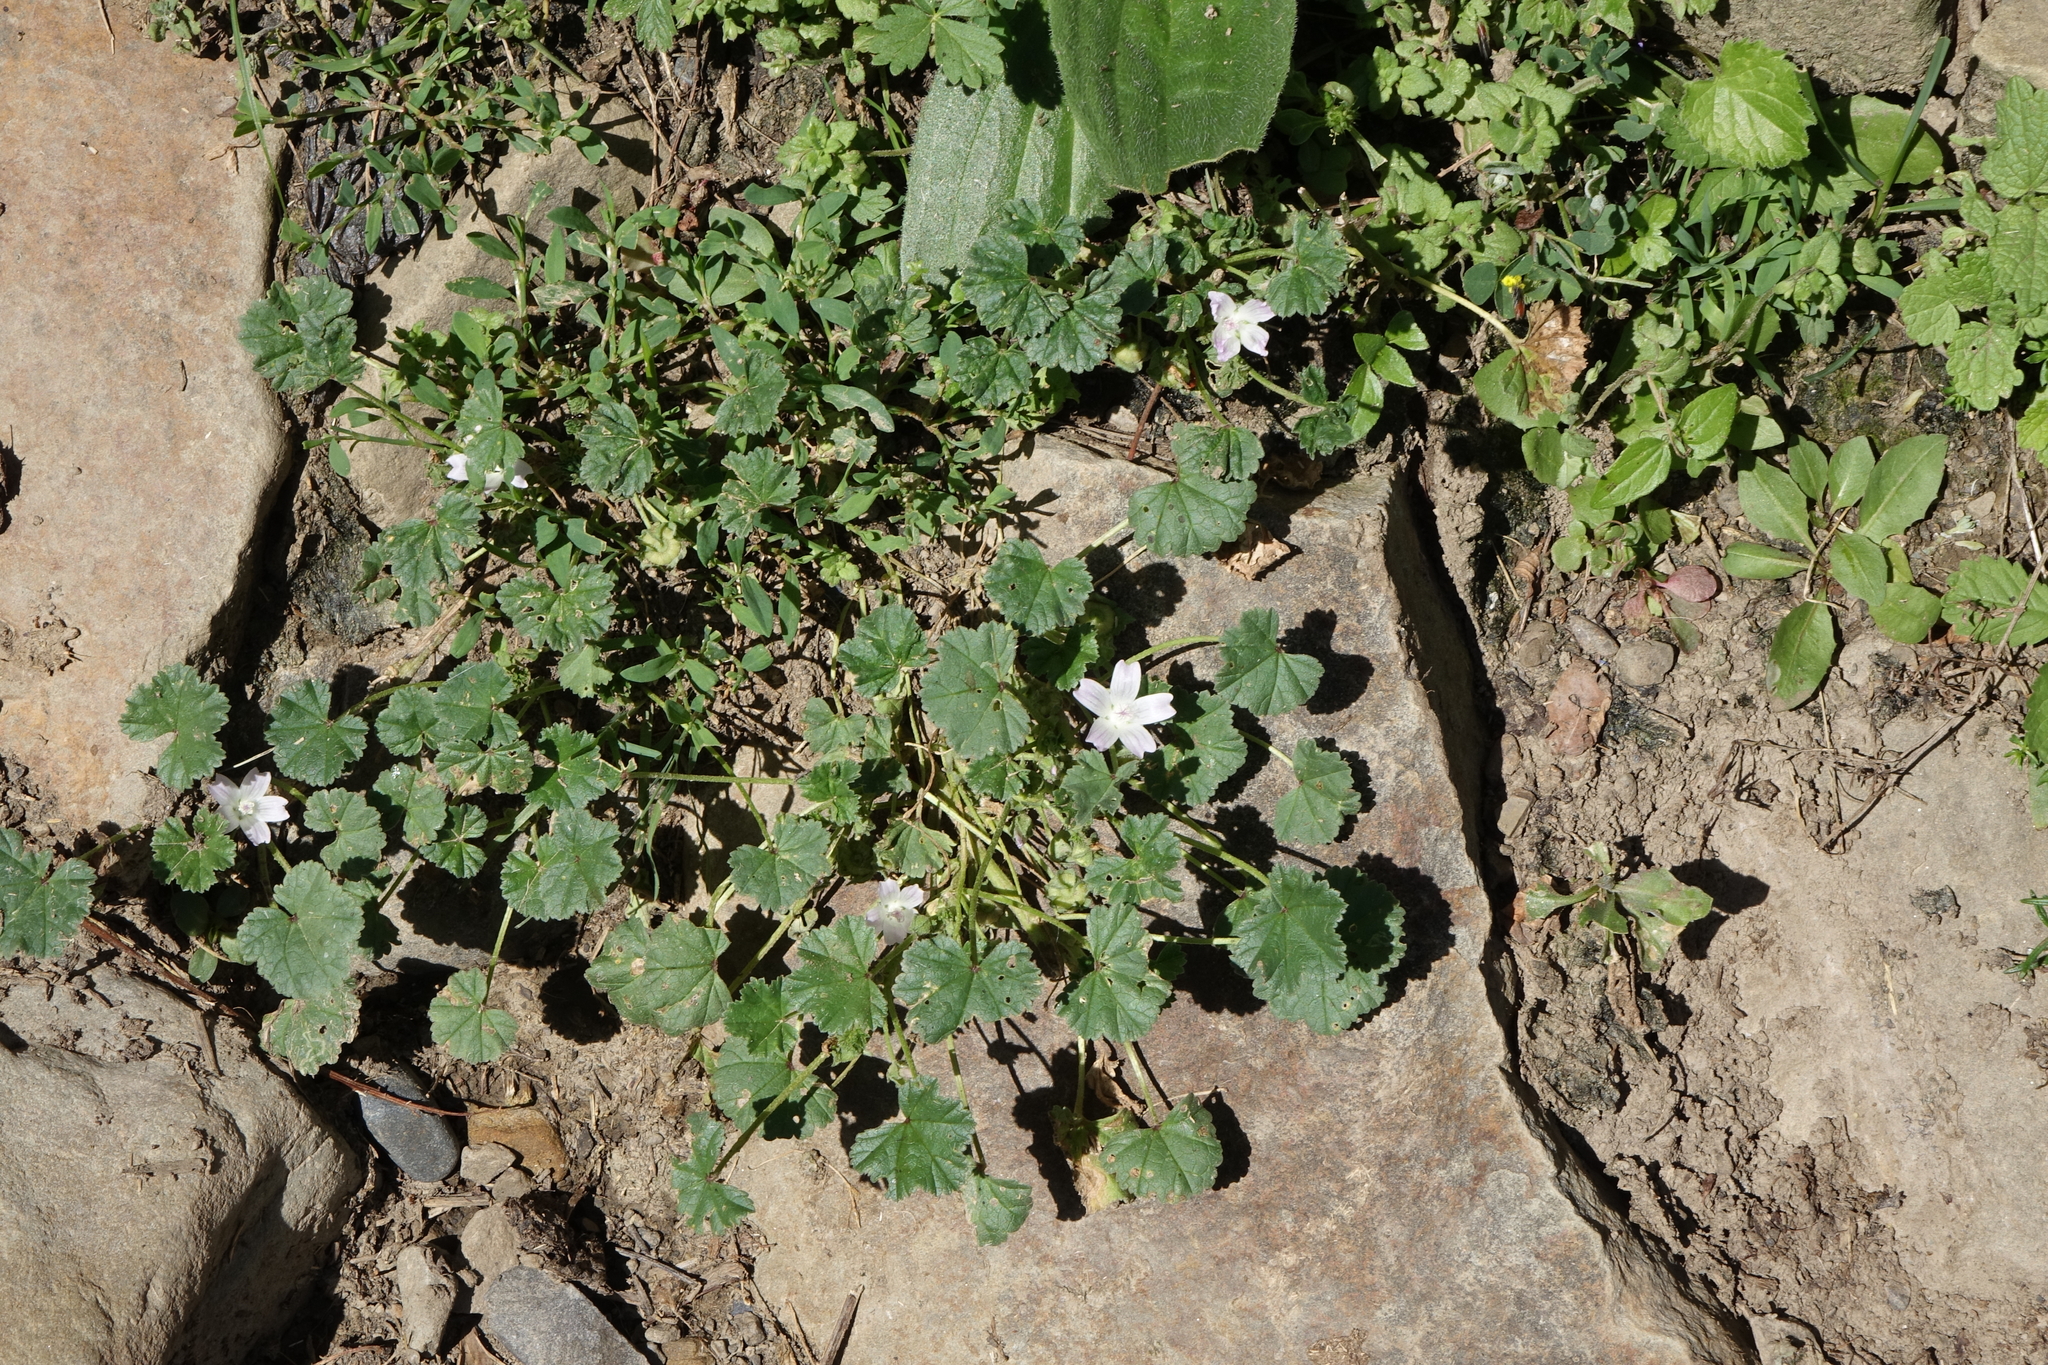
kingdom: Plantae
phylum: Tracheophyta
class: Magnoliopsida
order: Malvales
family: Malvaceae
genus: Malva
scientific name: Malva neglecta
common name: Common mallow
